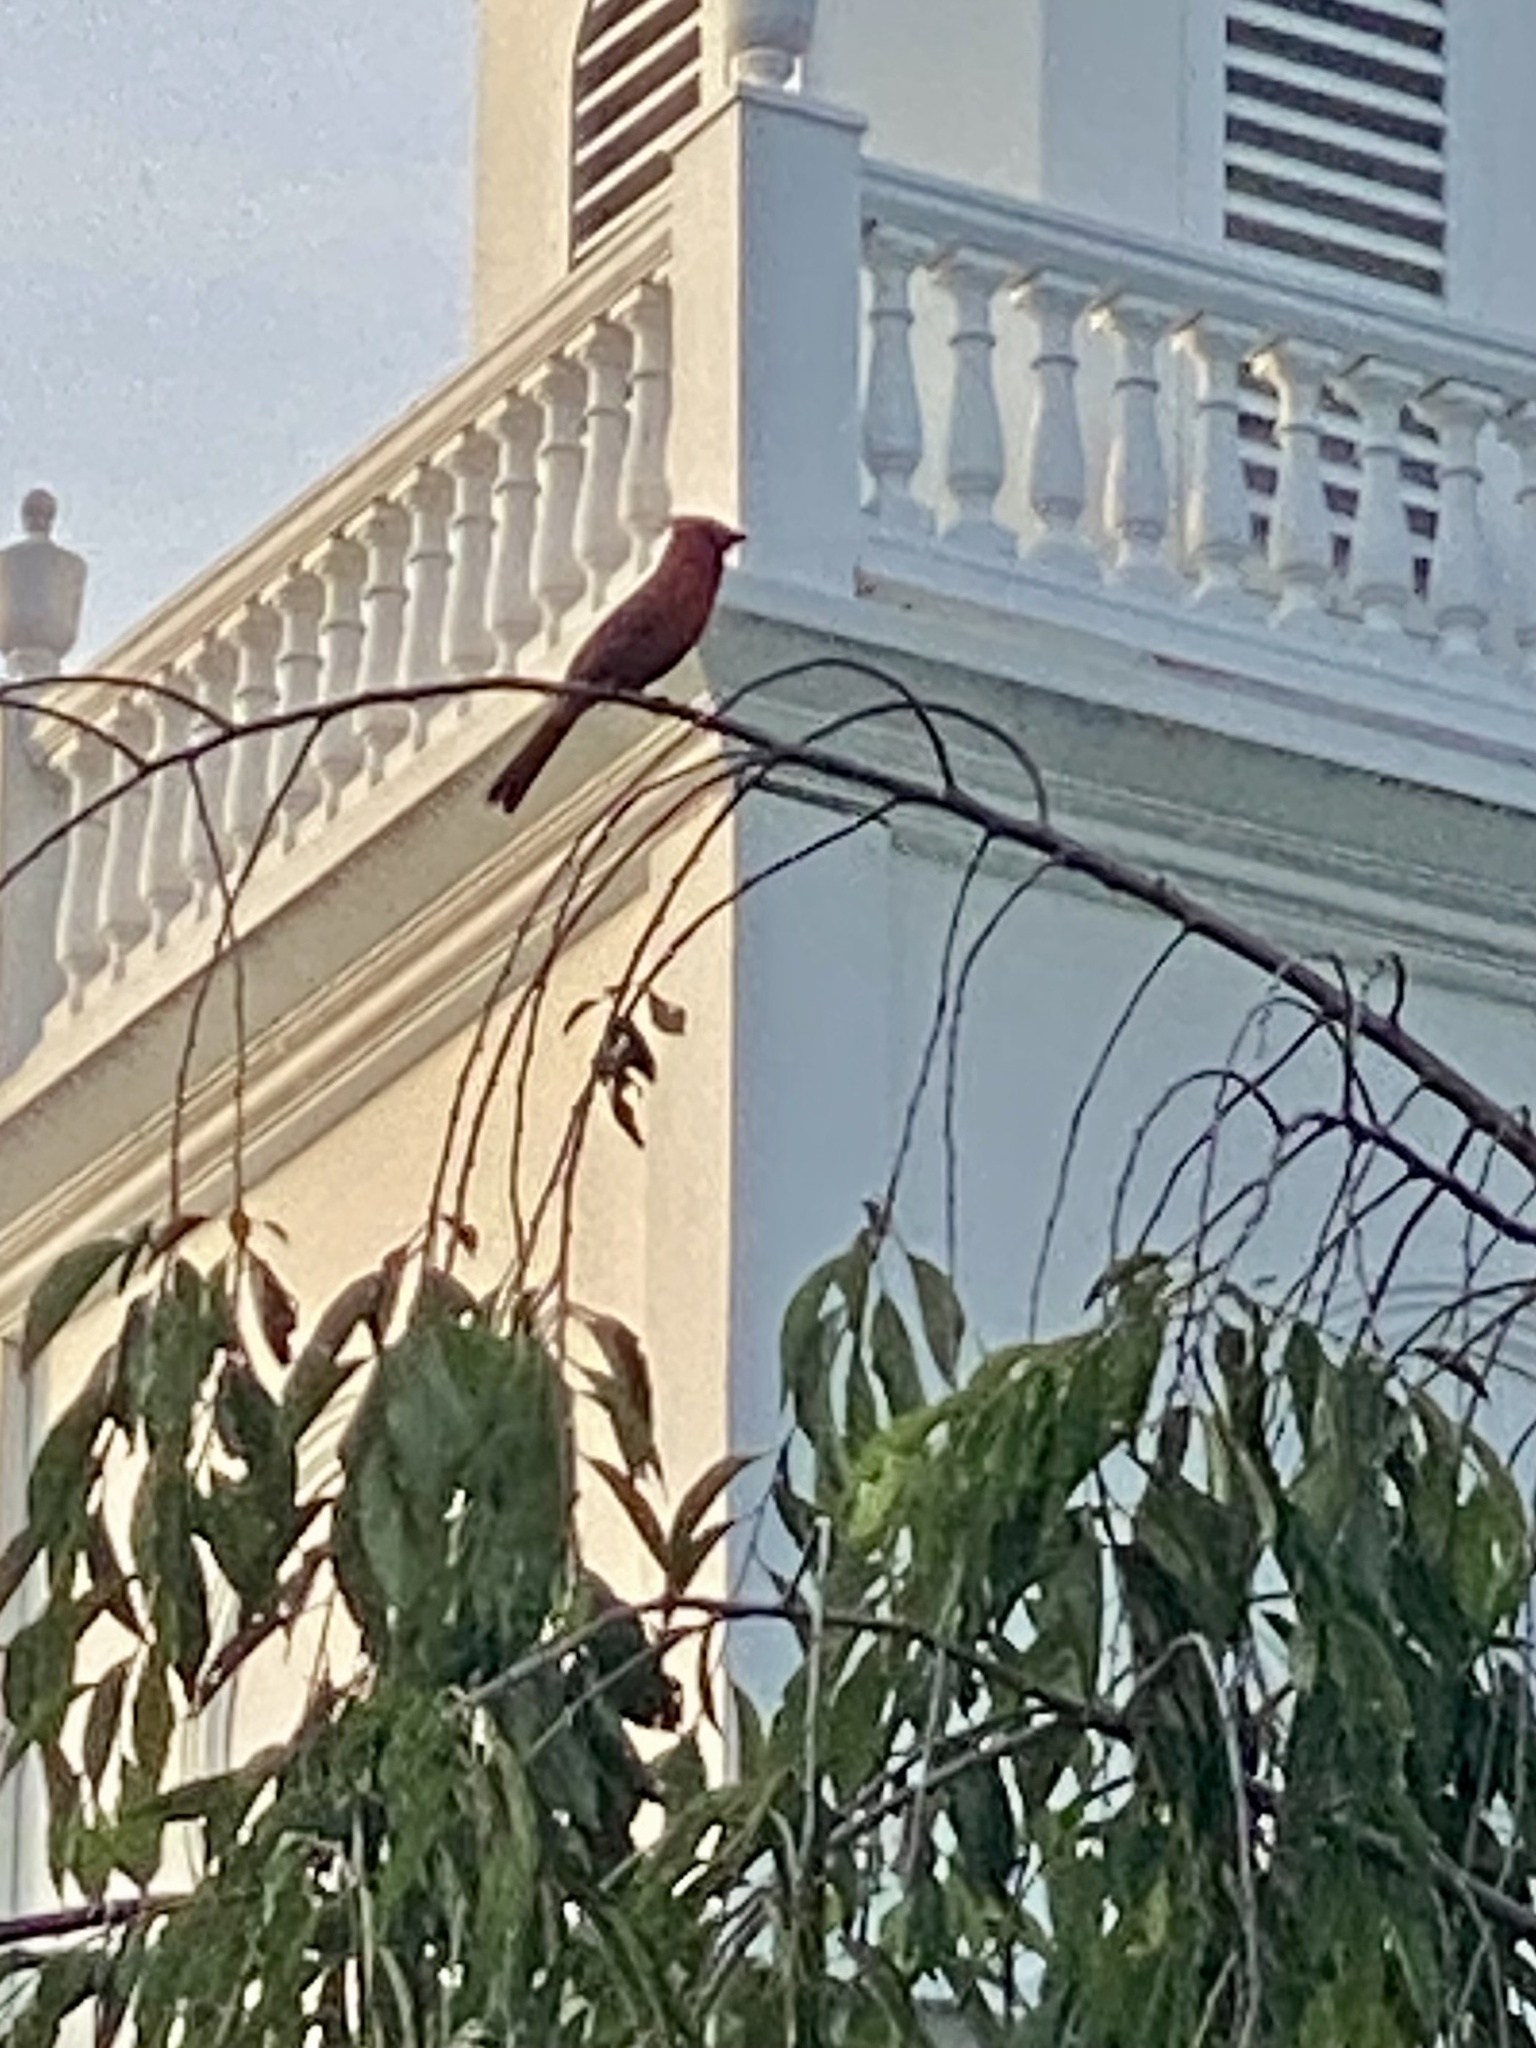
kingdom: Animalia
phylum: Chordata
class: Aves
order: Passeriformes
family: Cardinalidae
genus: Cardinalis
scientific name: Cardinalis cardinalis
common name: Northern cardinal
